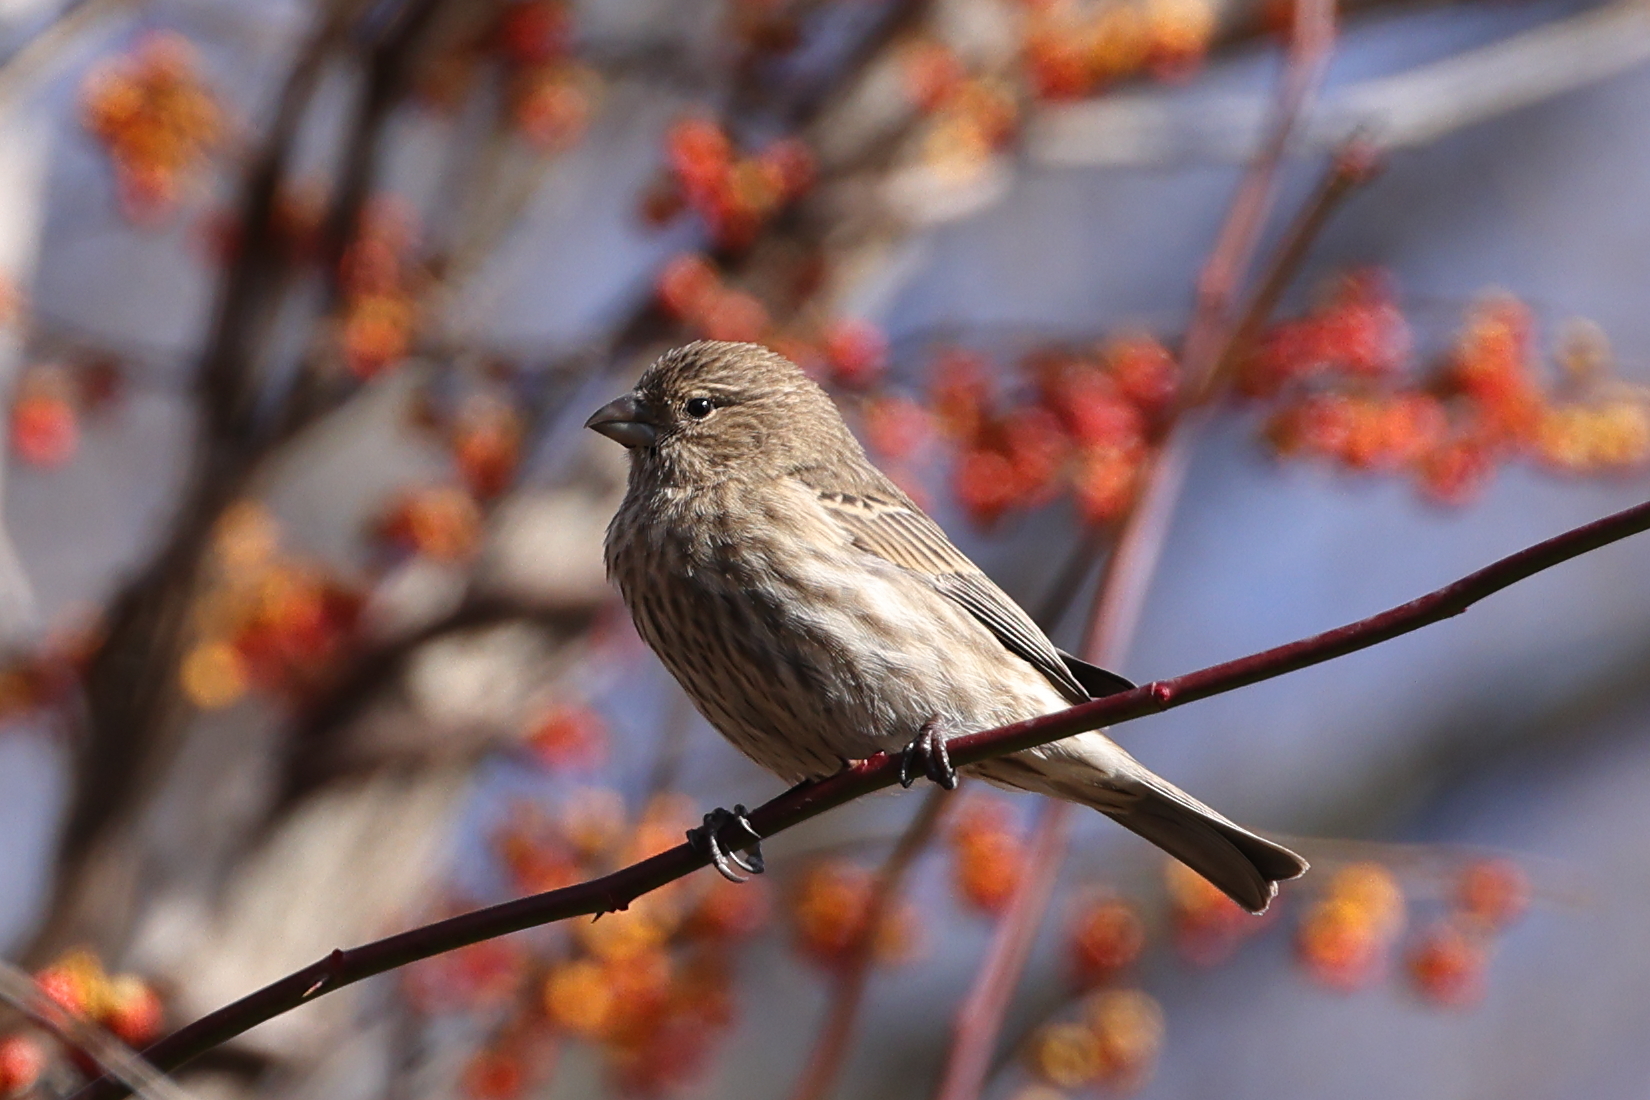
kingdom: Animalia
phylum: Chordata
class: Aves
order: Passeriformes
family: Fringillidae
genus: Haemorhous
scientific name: Haemorhous mexicanus
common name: House finch
